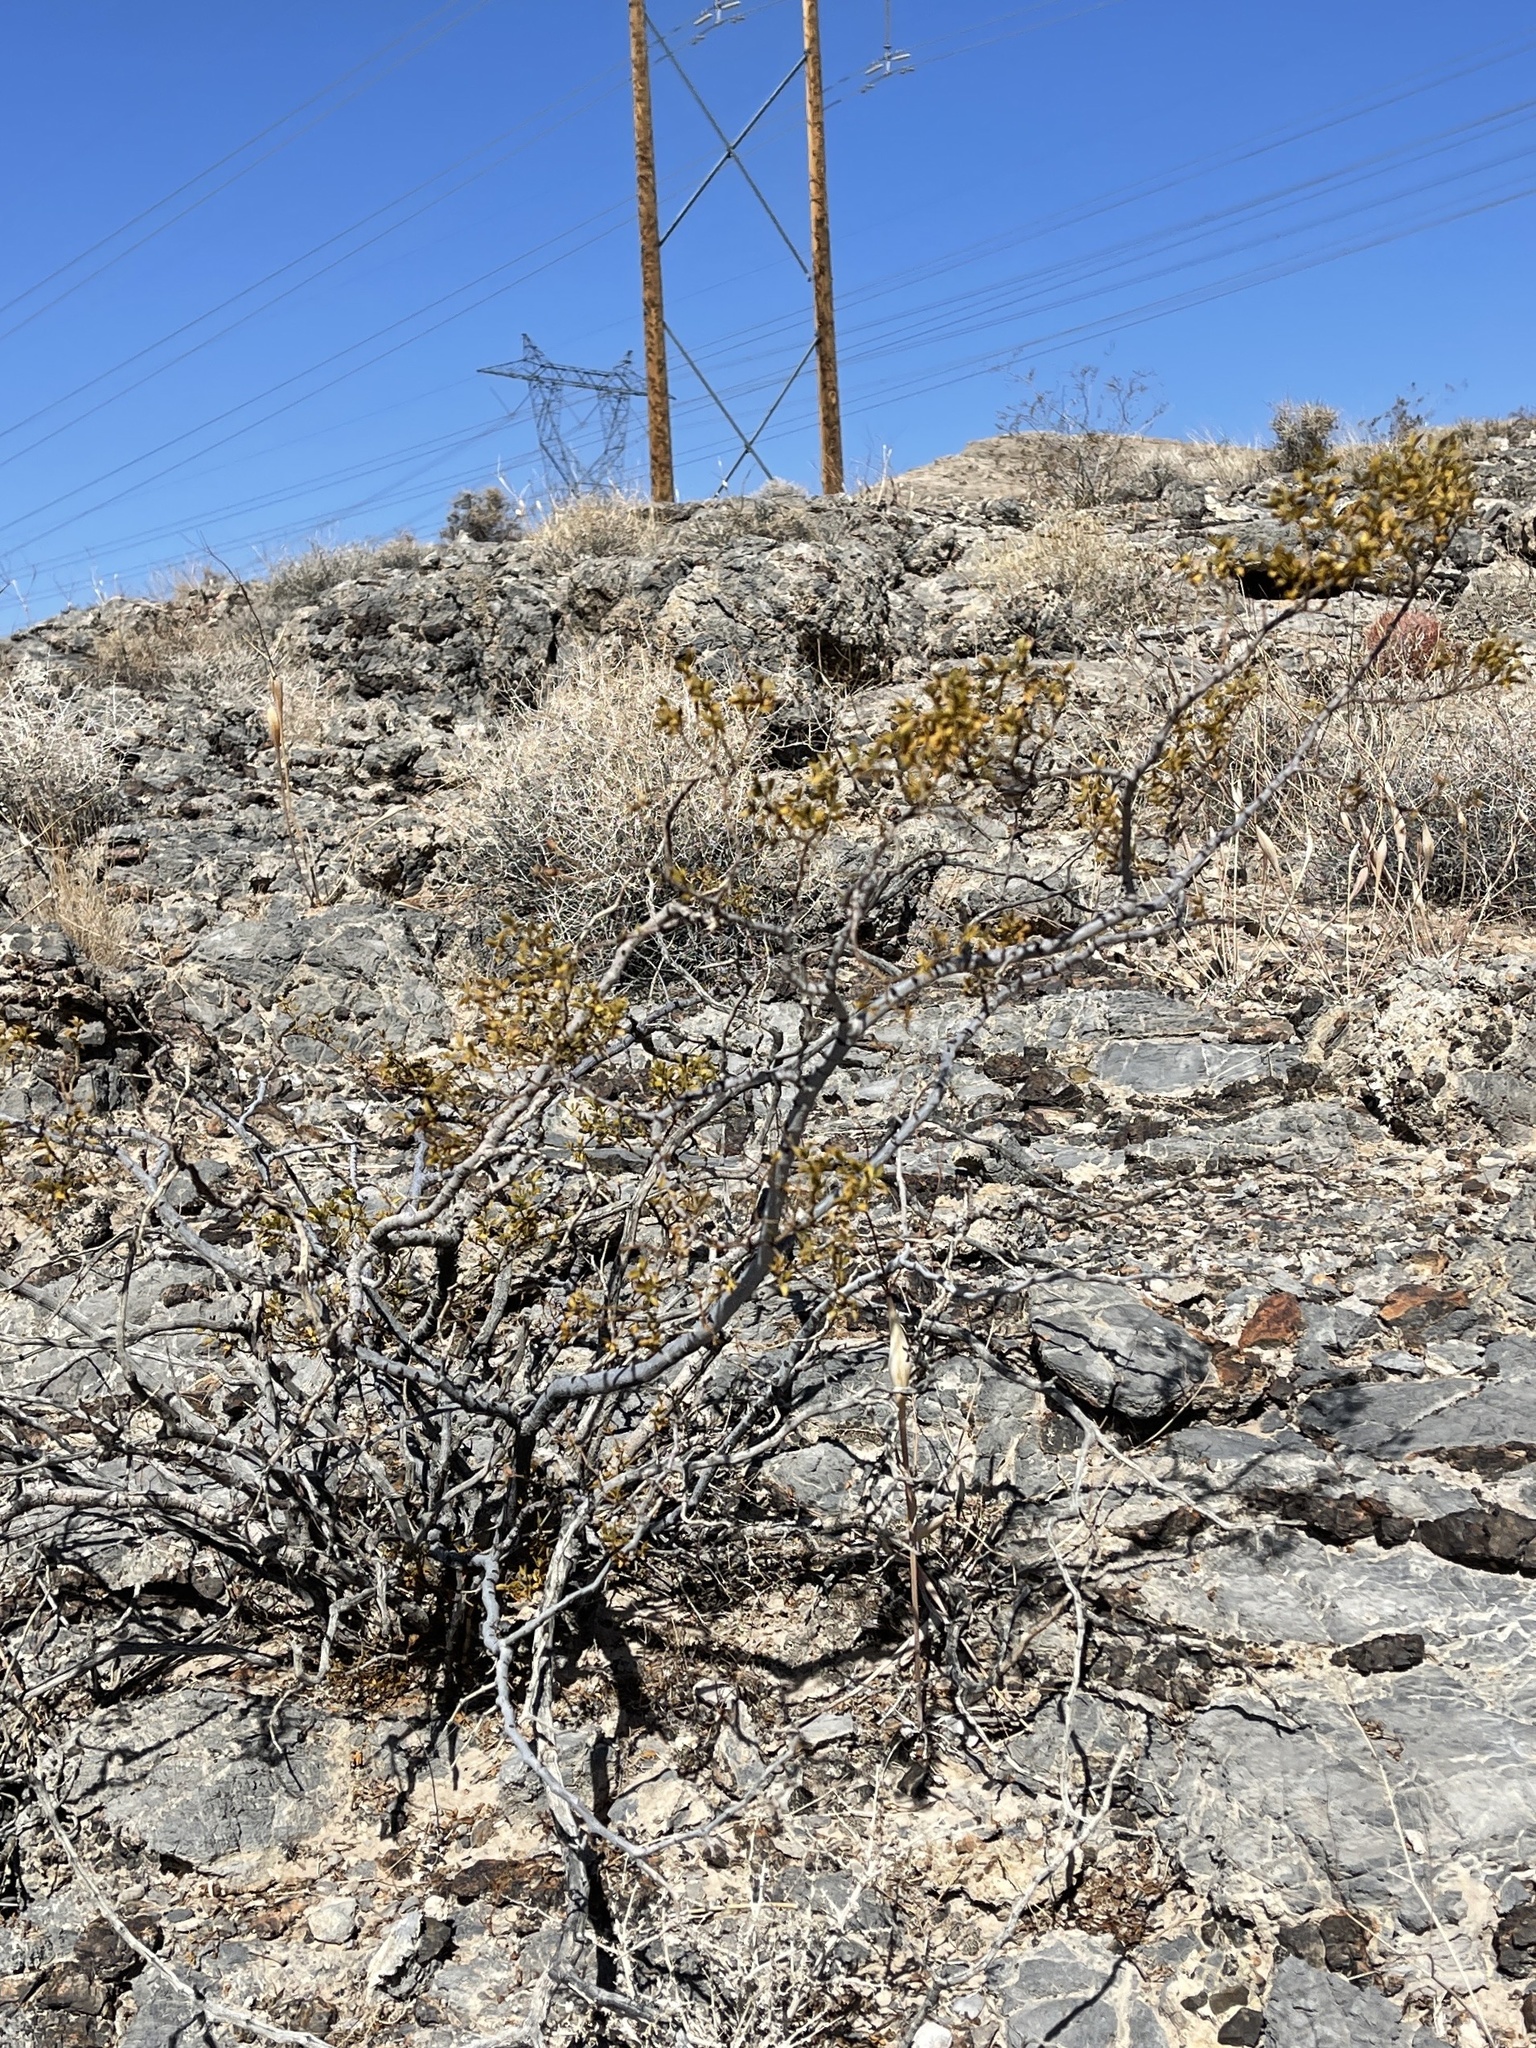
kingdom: Plantae
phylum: Tracheophyta
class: Magnoliopsida
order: Zygophyllales
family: Zygophyllaceae
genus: Larrea
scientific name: Larrea tridentata
